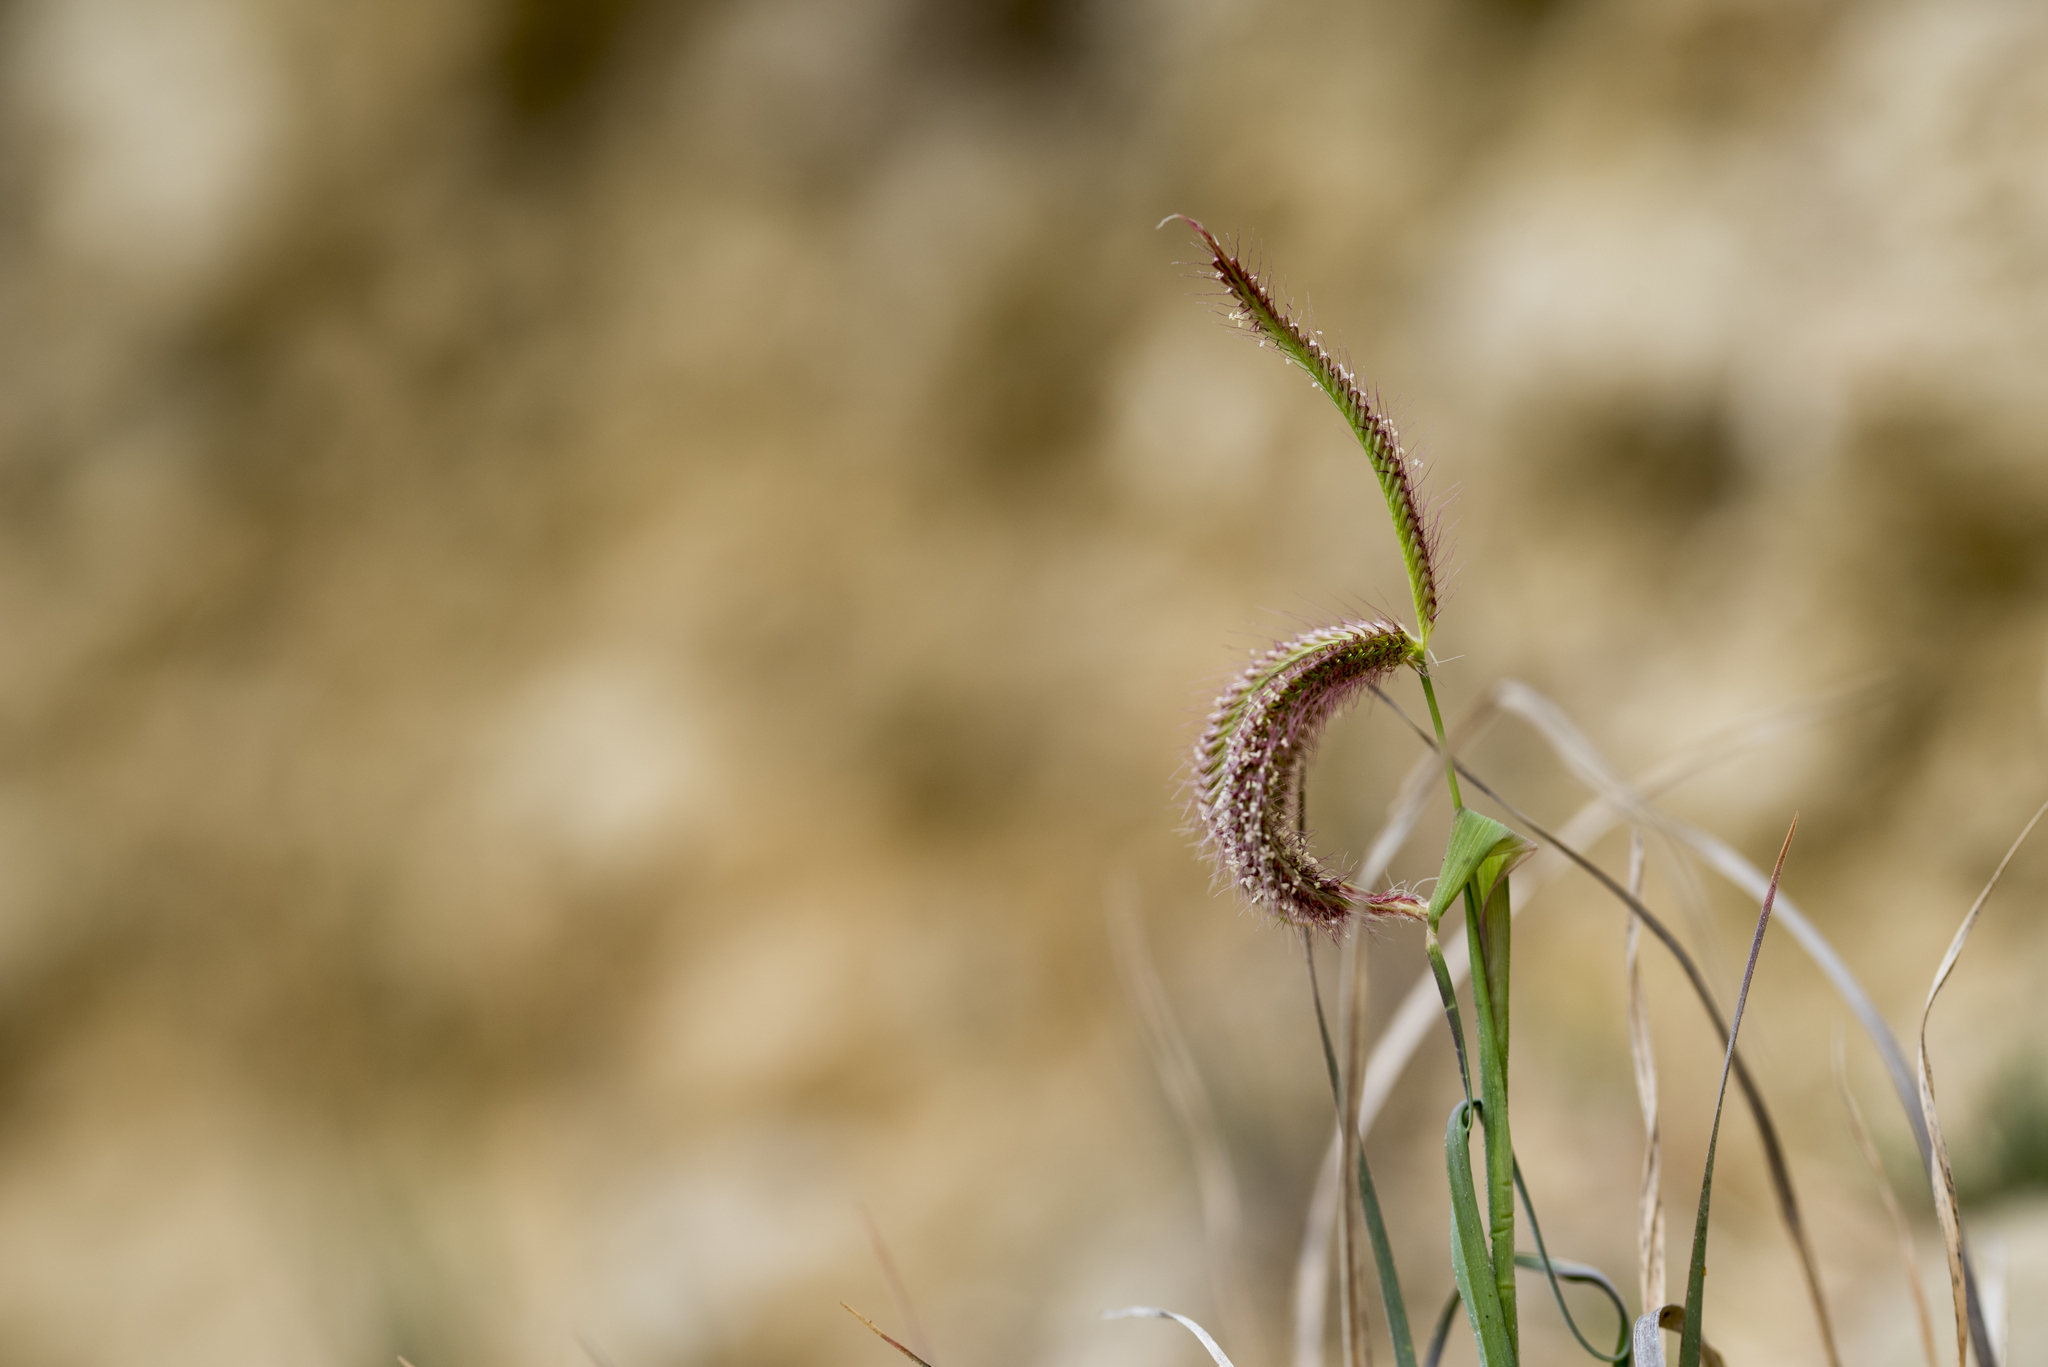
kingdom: Plantae
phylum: Tracheophyta
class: Liliopsida
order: Poales
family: Poaceae
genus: Chloris
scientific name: Chloris barbata
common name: Swollen fingergrass
